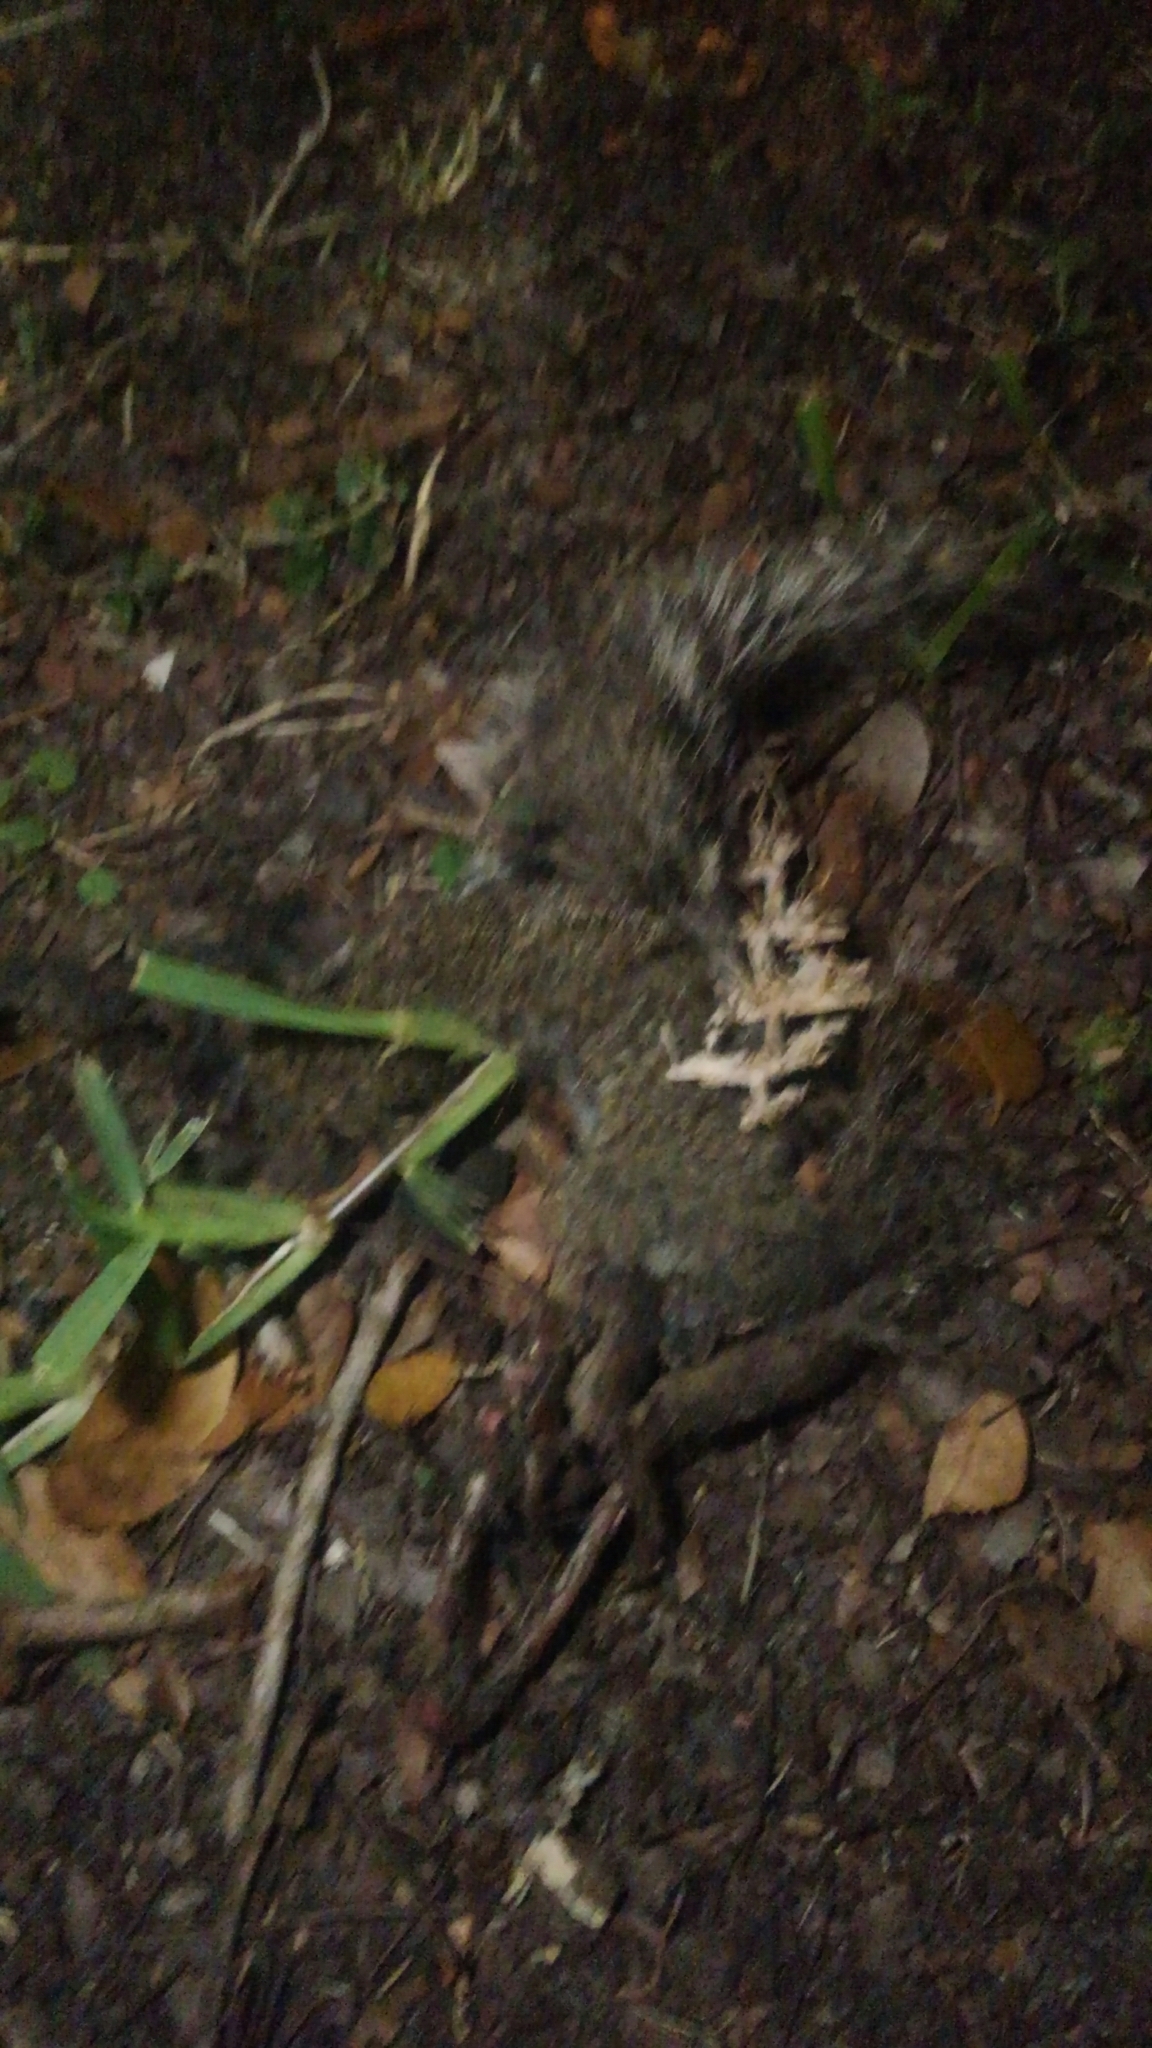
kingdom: Animalia
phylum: Chordata
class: Mammalia
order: Rodentia
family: Sciuridae
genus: Sciurus
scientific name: Sciurus carolinensis
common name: Eastern gray squirrel
